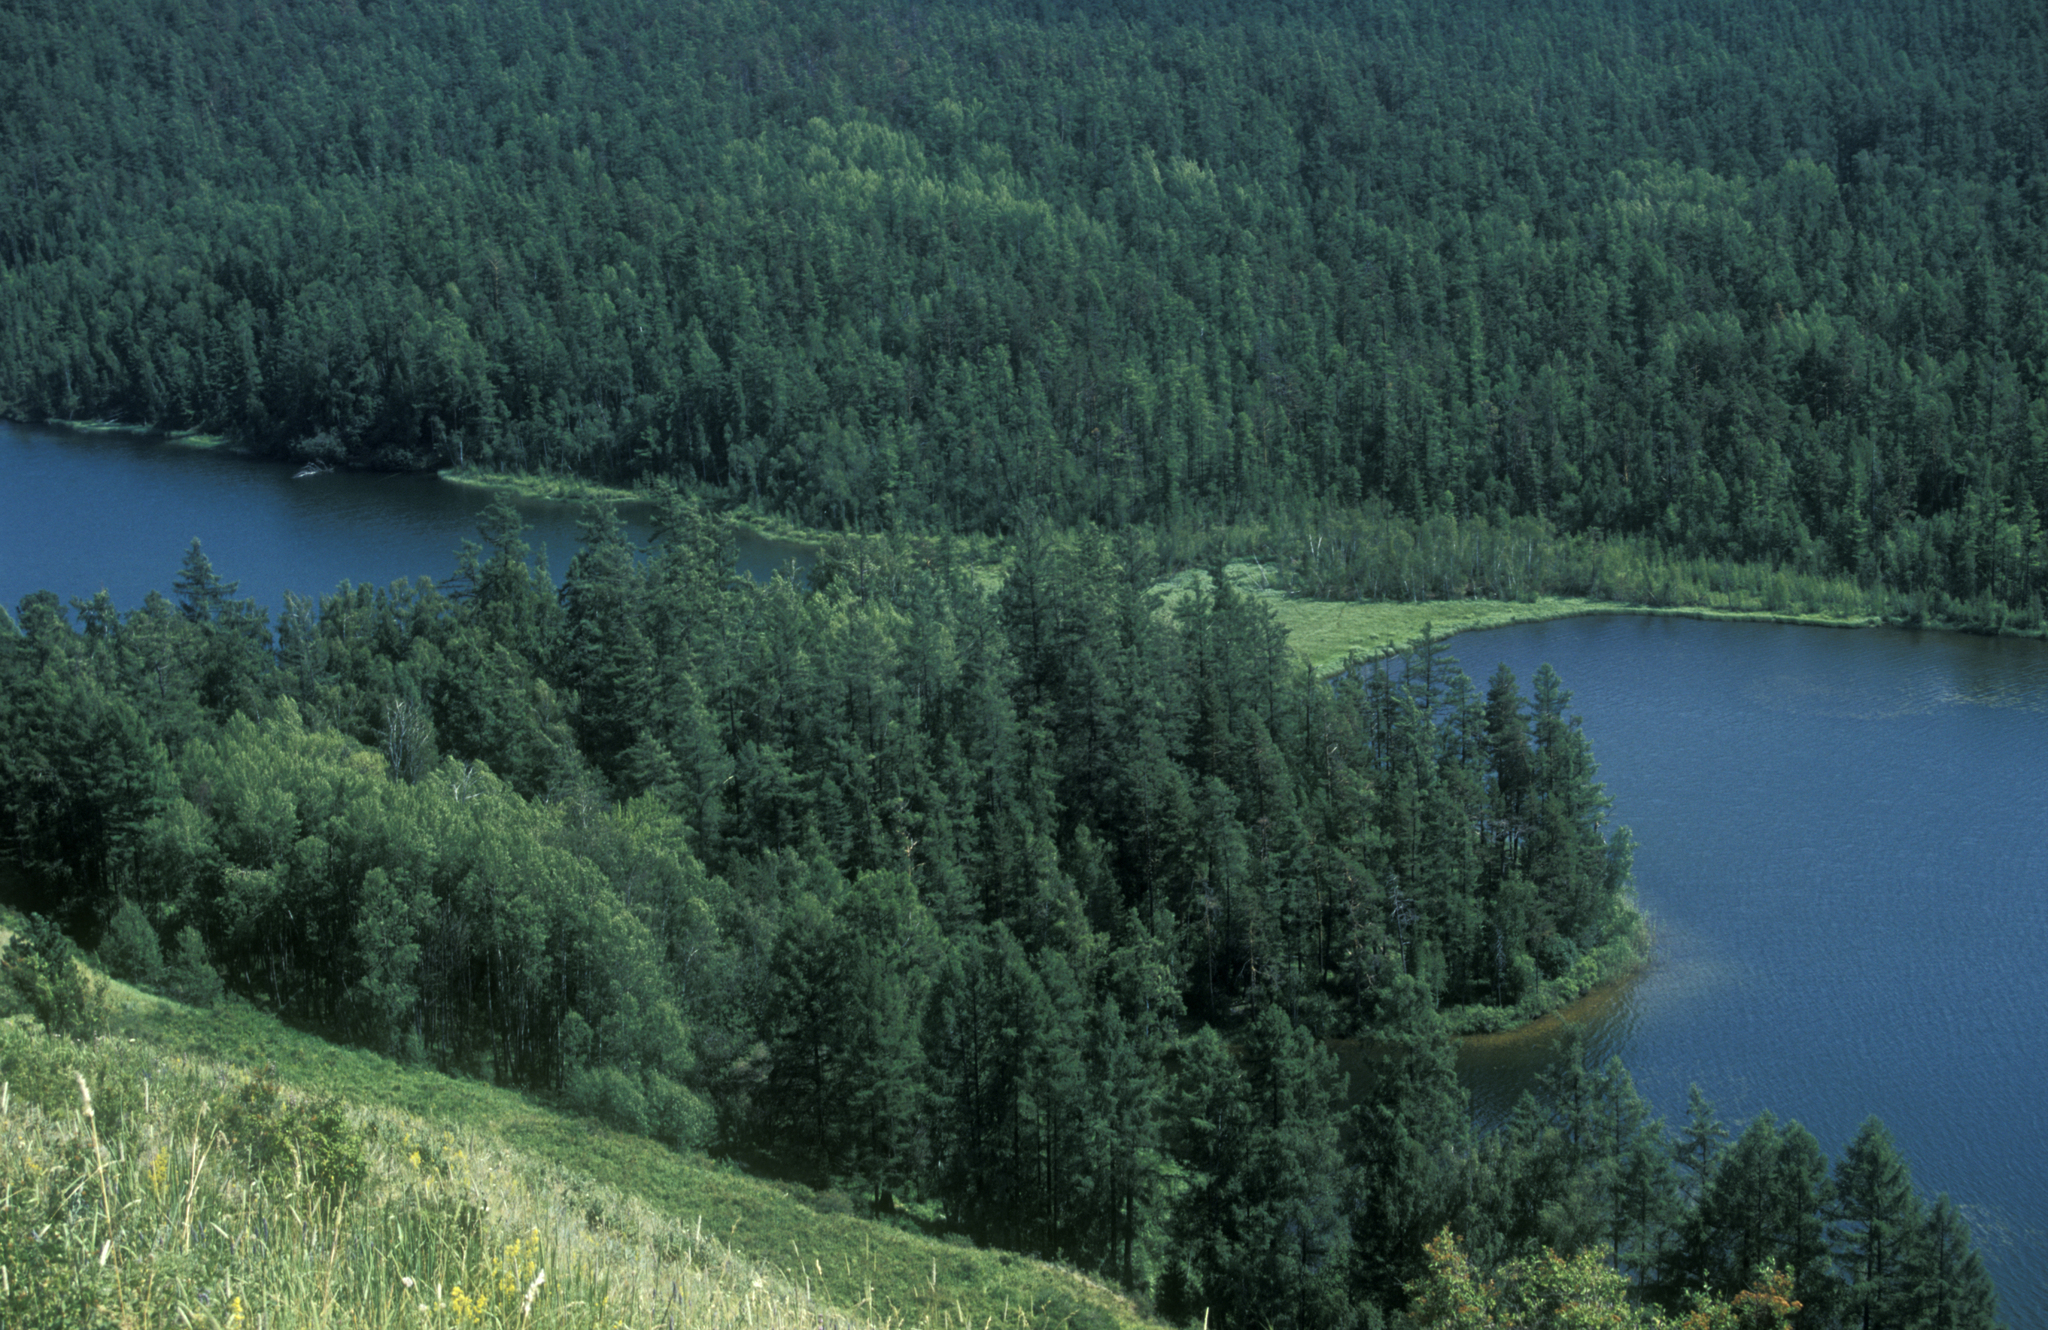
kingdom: Plantae
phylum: Tracheophyta
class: Pinopsida
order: Pinales
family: Pinaceae
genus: Pinus
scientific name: Pinus sylvestris
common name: Scots pine
